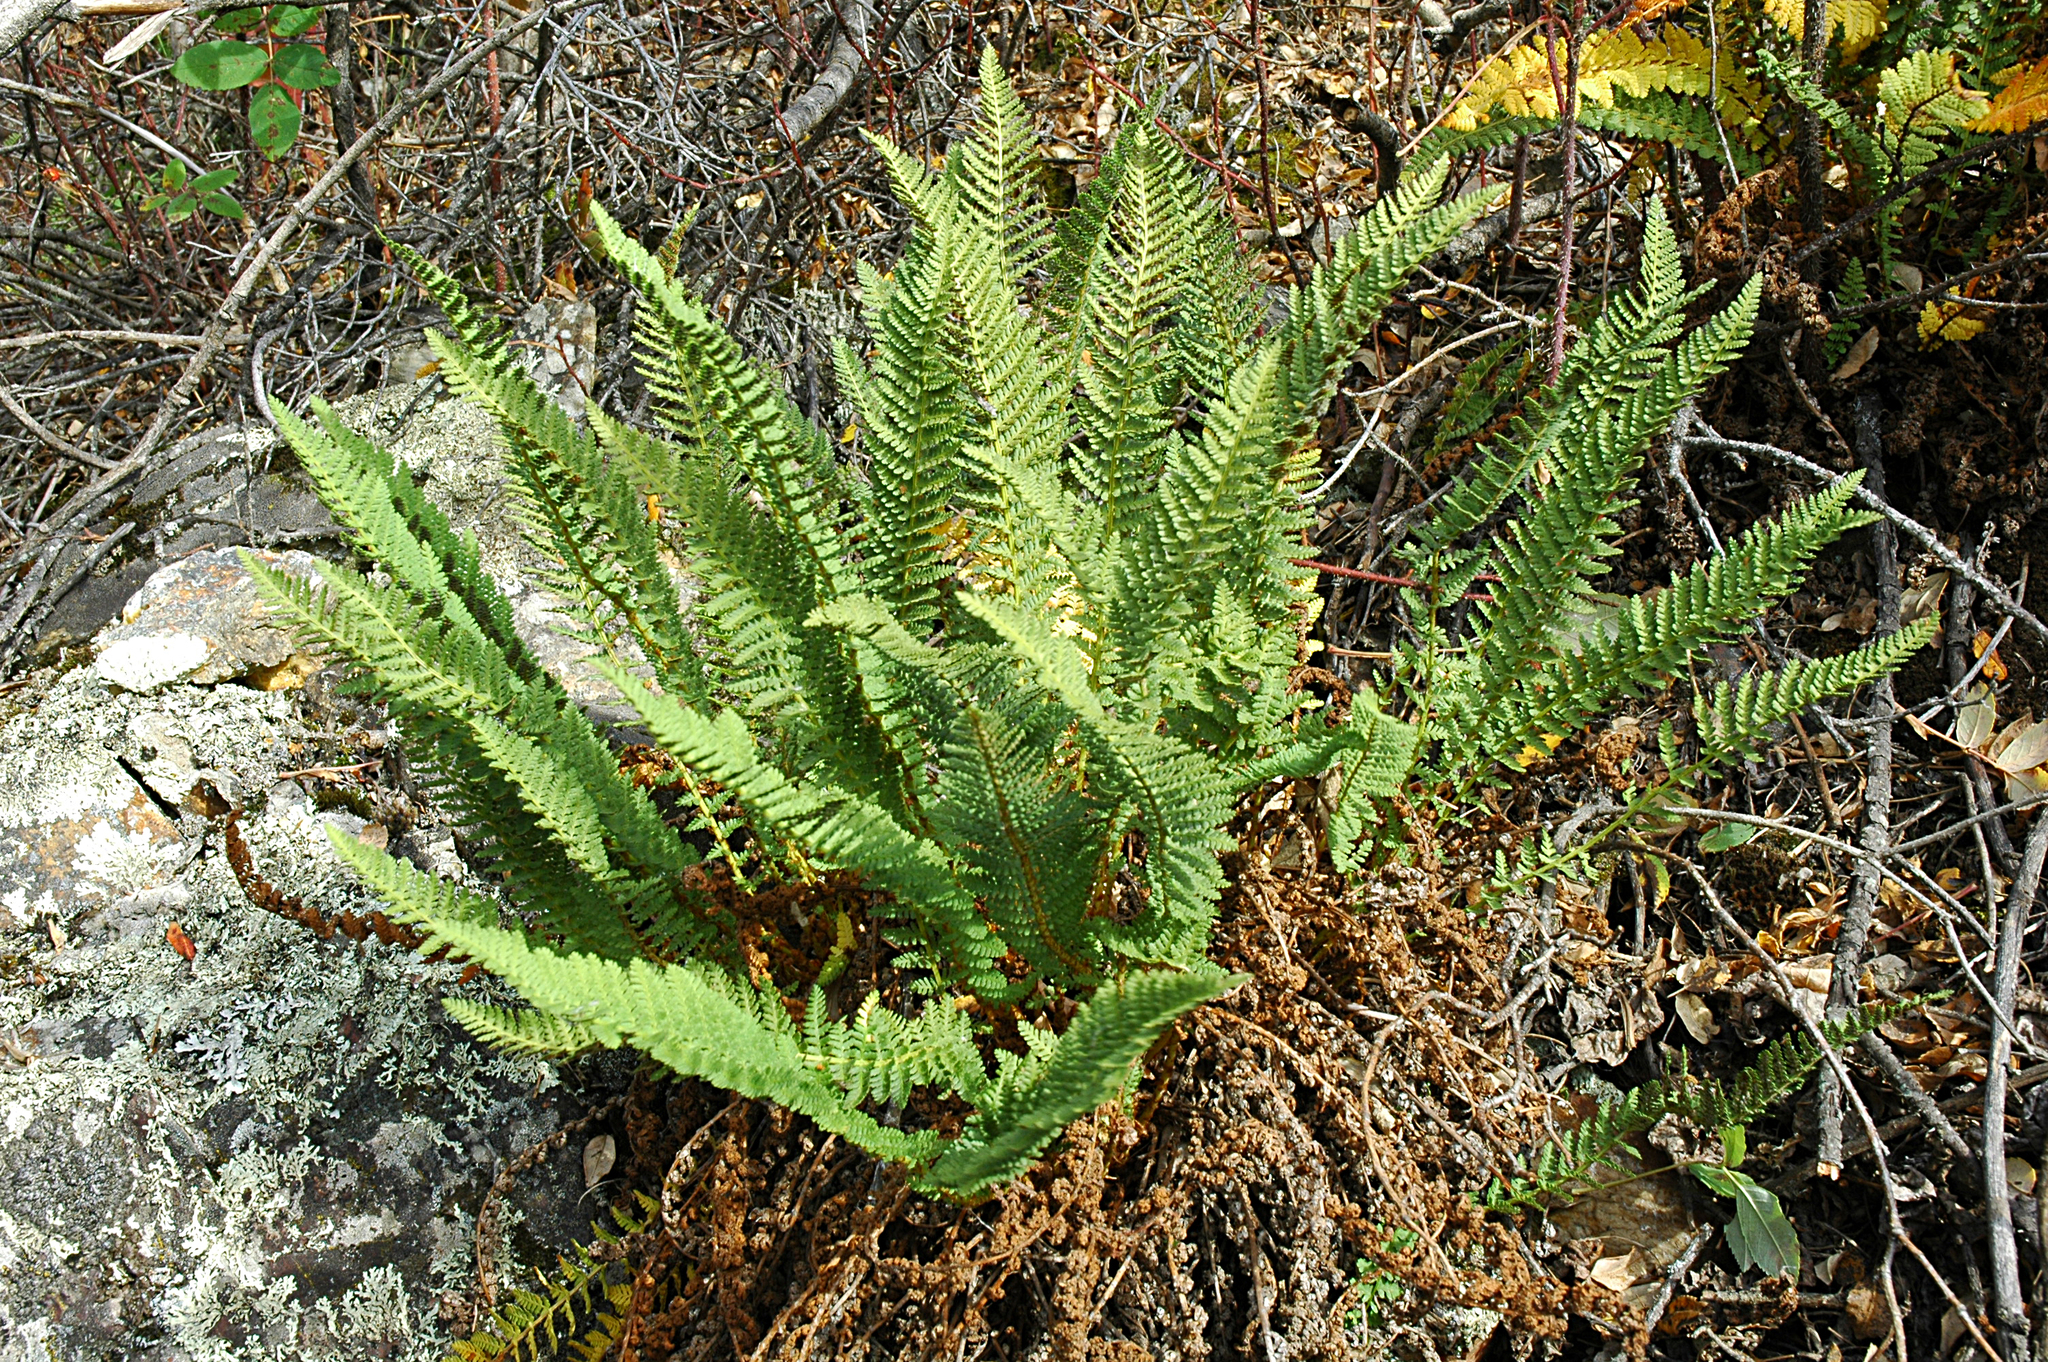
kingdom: Plantae
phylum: Tracheophyta
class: Polypodiopsida
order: Polypodiales
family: Dryopteridaceae
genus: Dryopteris
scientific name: Dryopteris fragrans
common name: Fragrant wood fern
